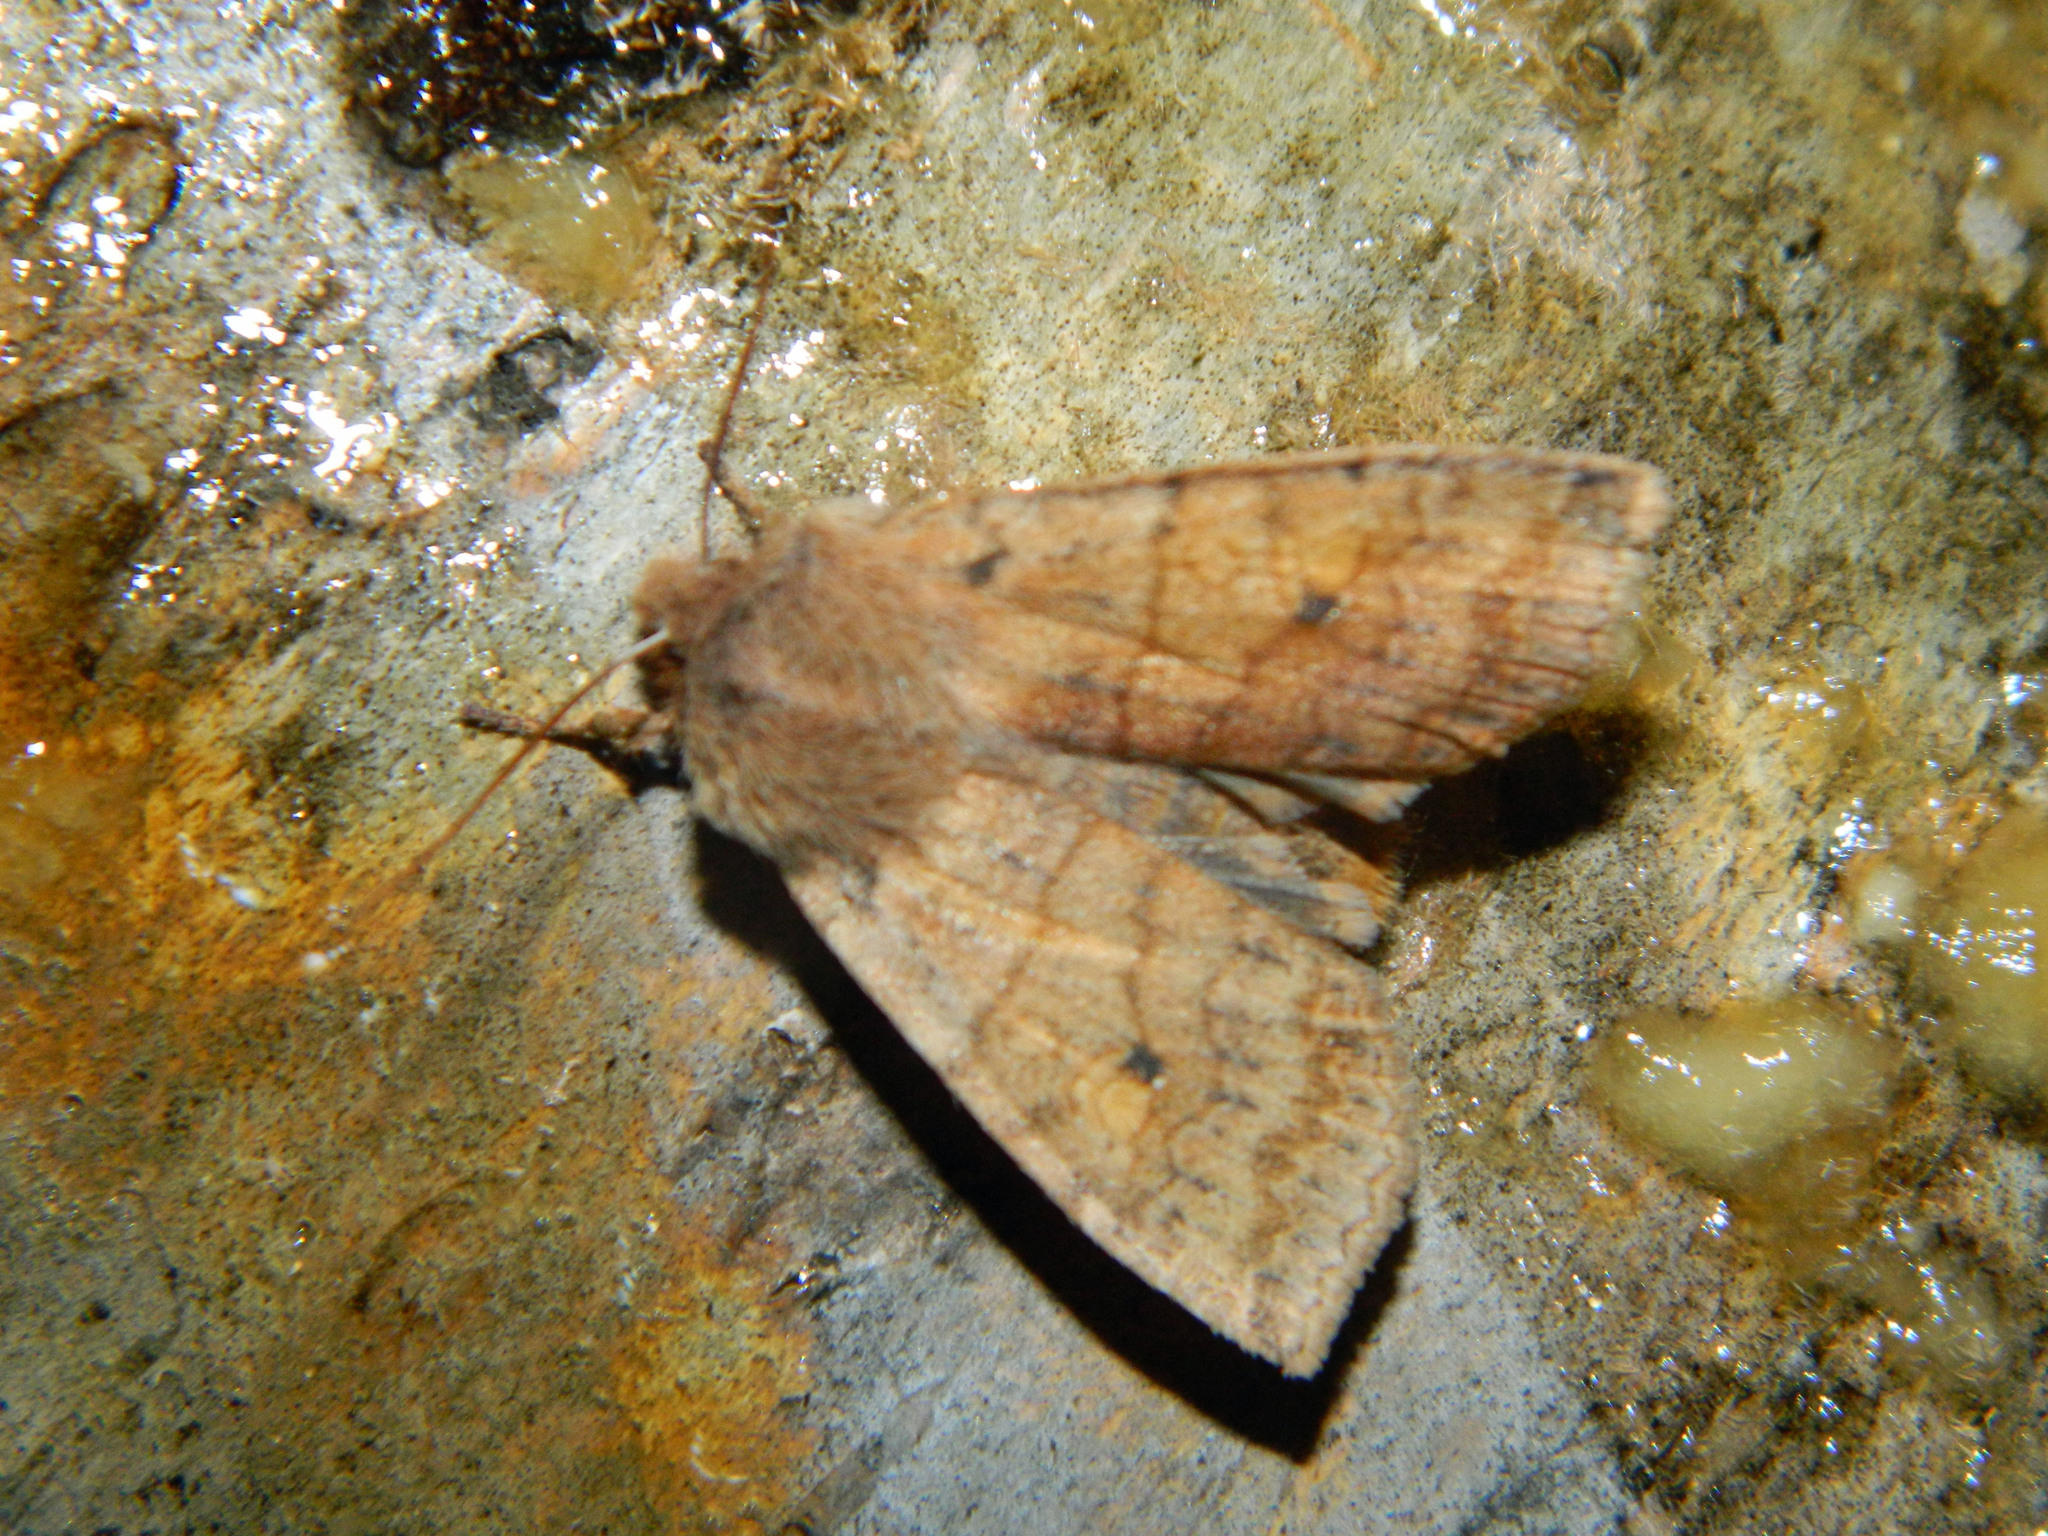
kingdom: Animalia
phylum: Arthropoda
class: Insecta
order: Lepidoptera
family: Noctuidae
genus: Eupsilia
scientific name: Eupsilia tristigmata
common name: Three-spotted sallow
